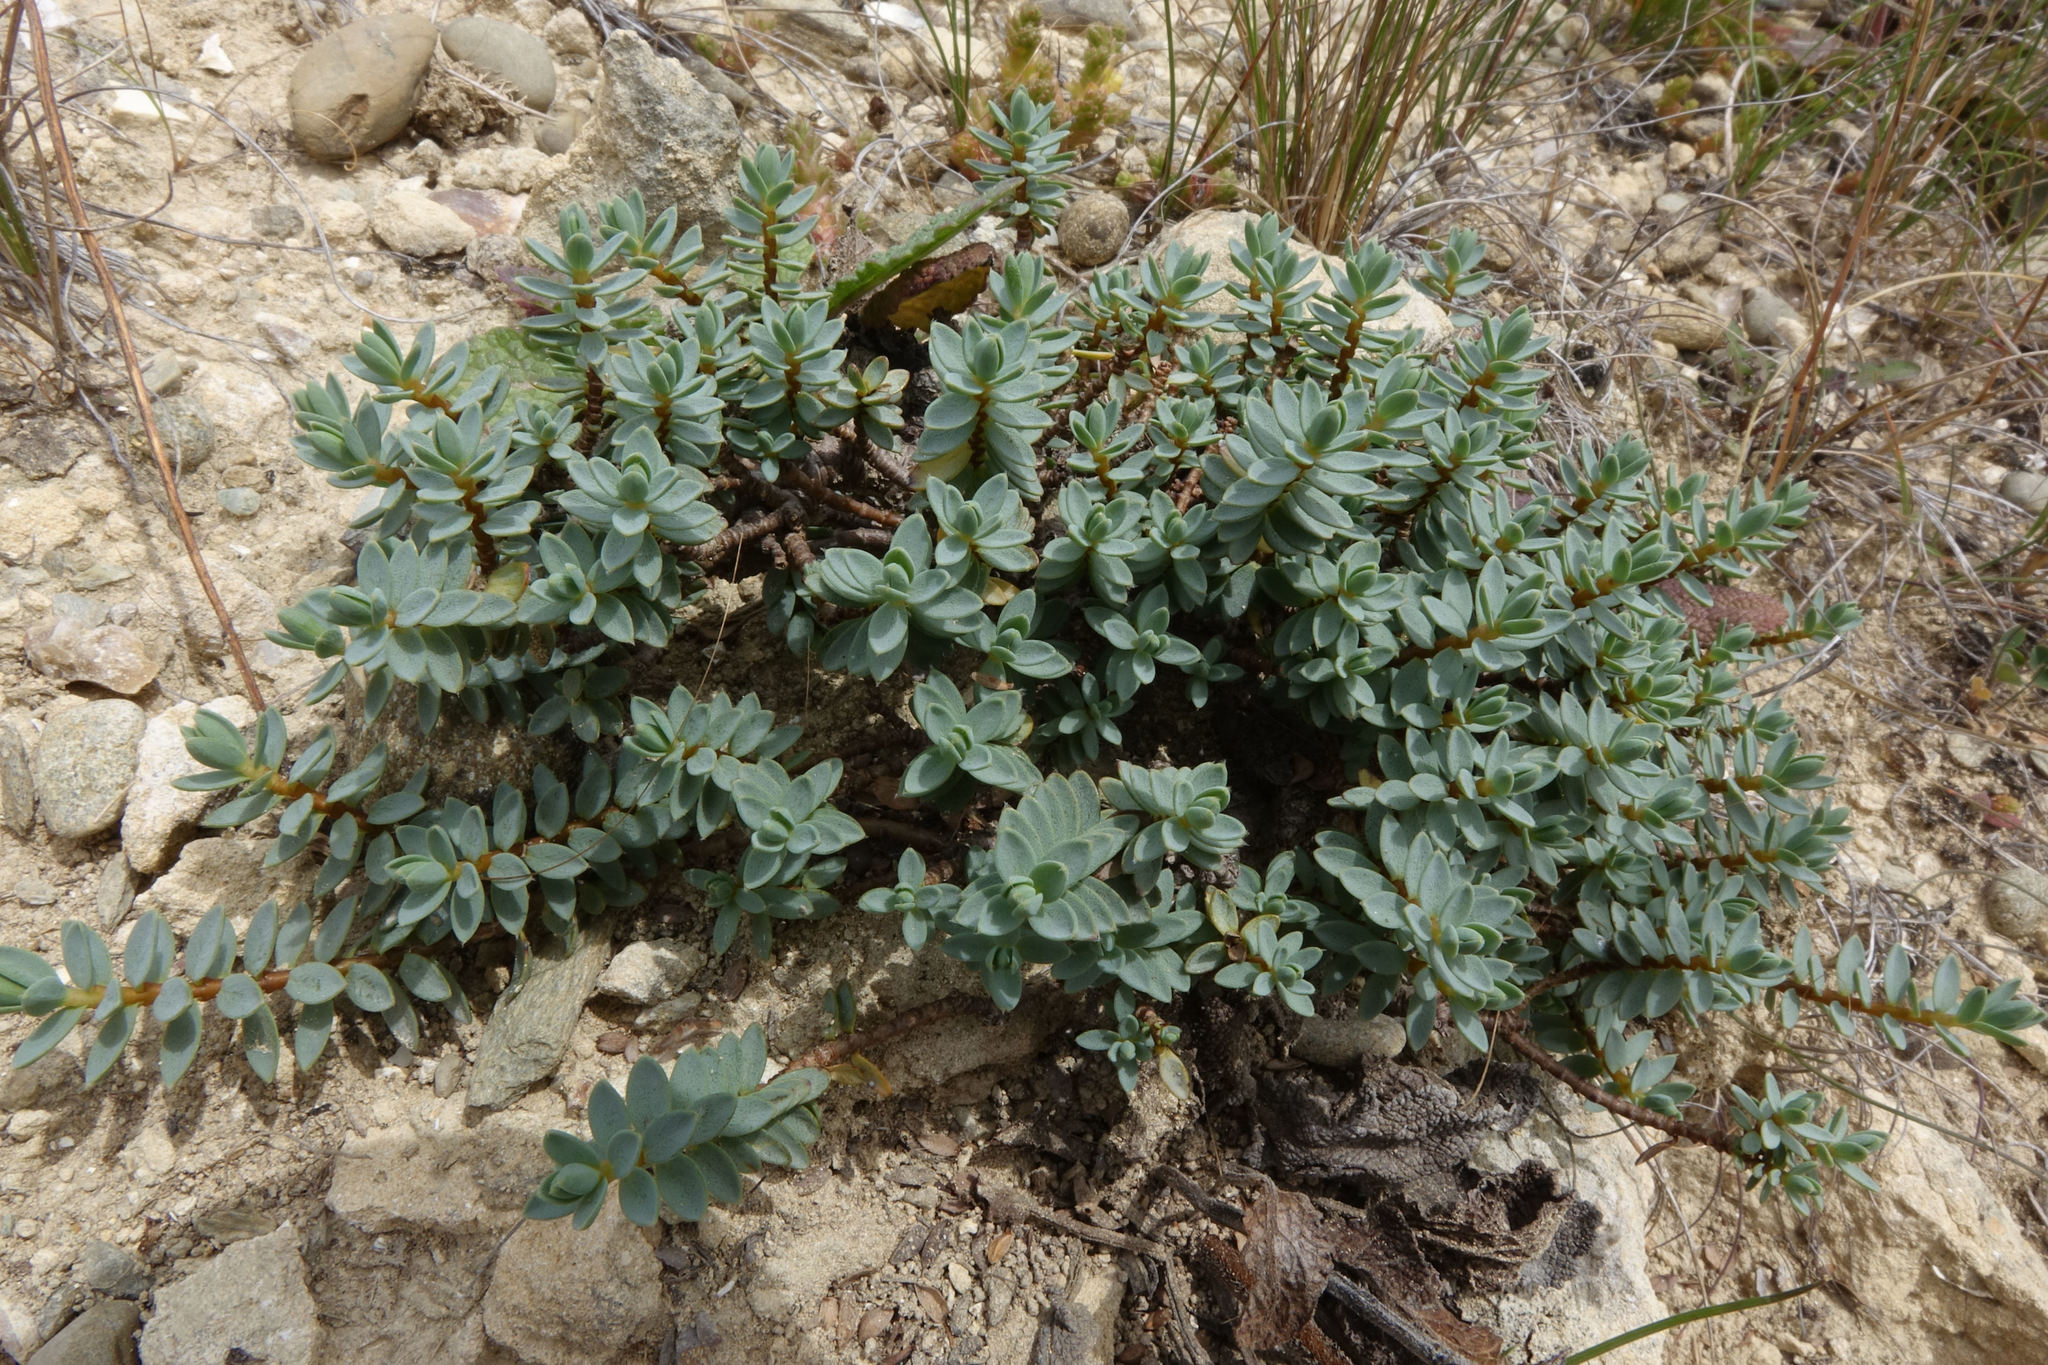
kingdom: Plantae
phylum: Tracheophyta
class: Magnoliopsida
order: Malvales
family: Thymelaeaceae
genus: Pimelea
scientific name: Pimelea prostrata
